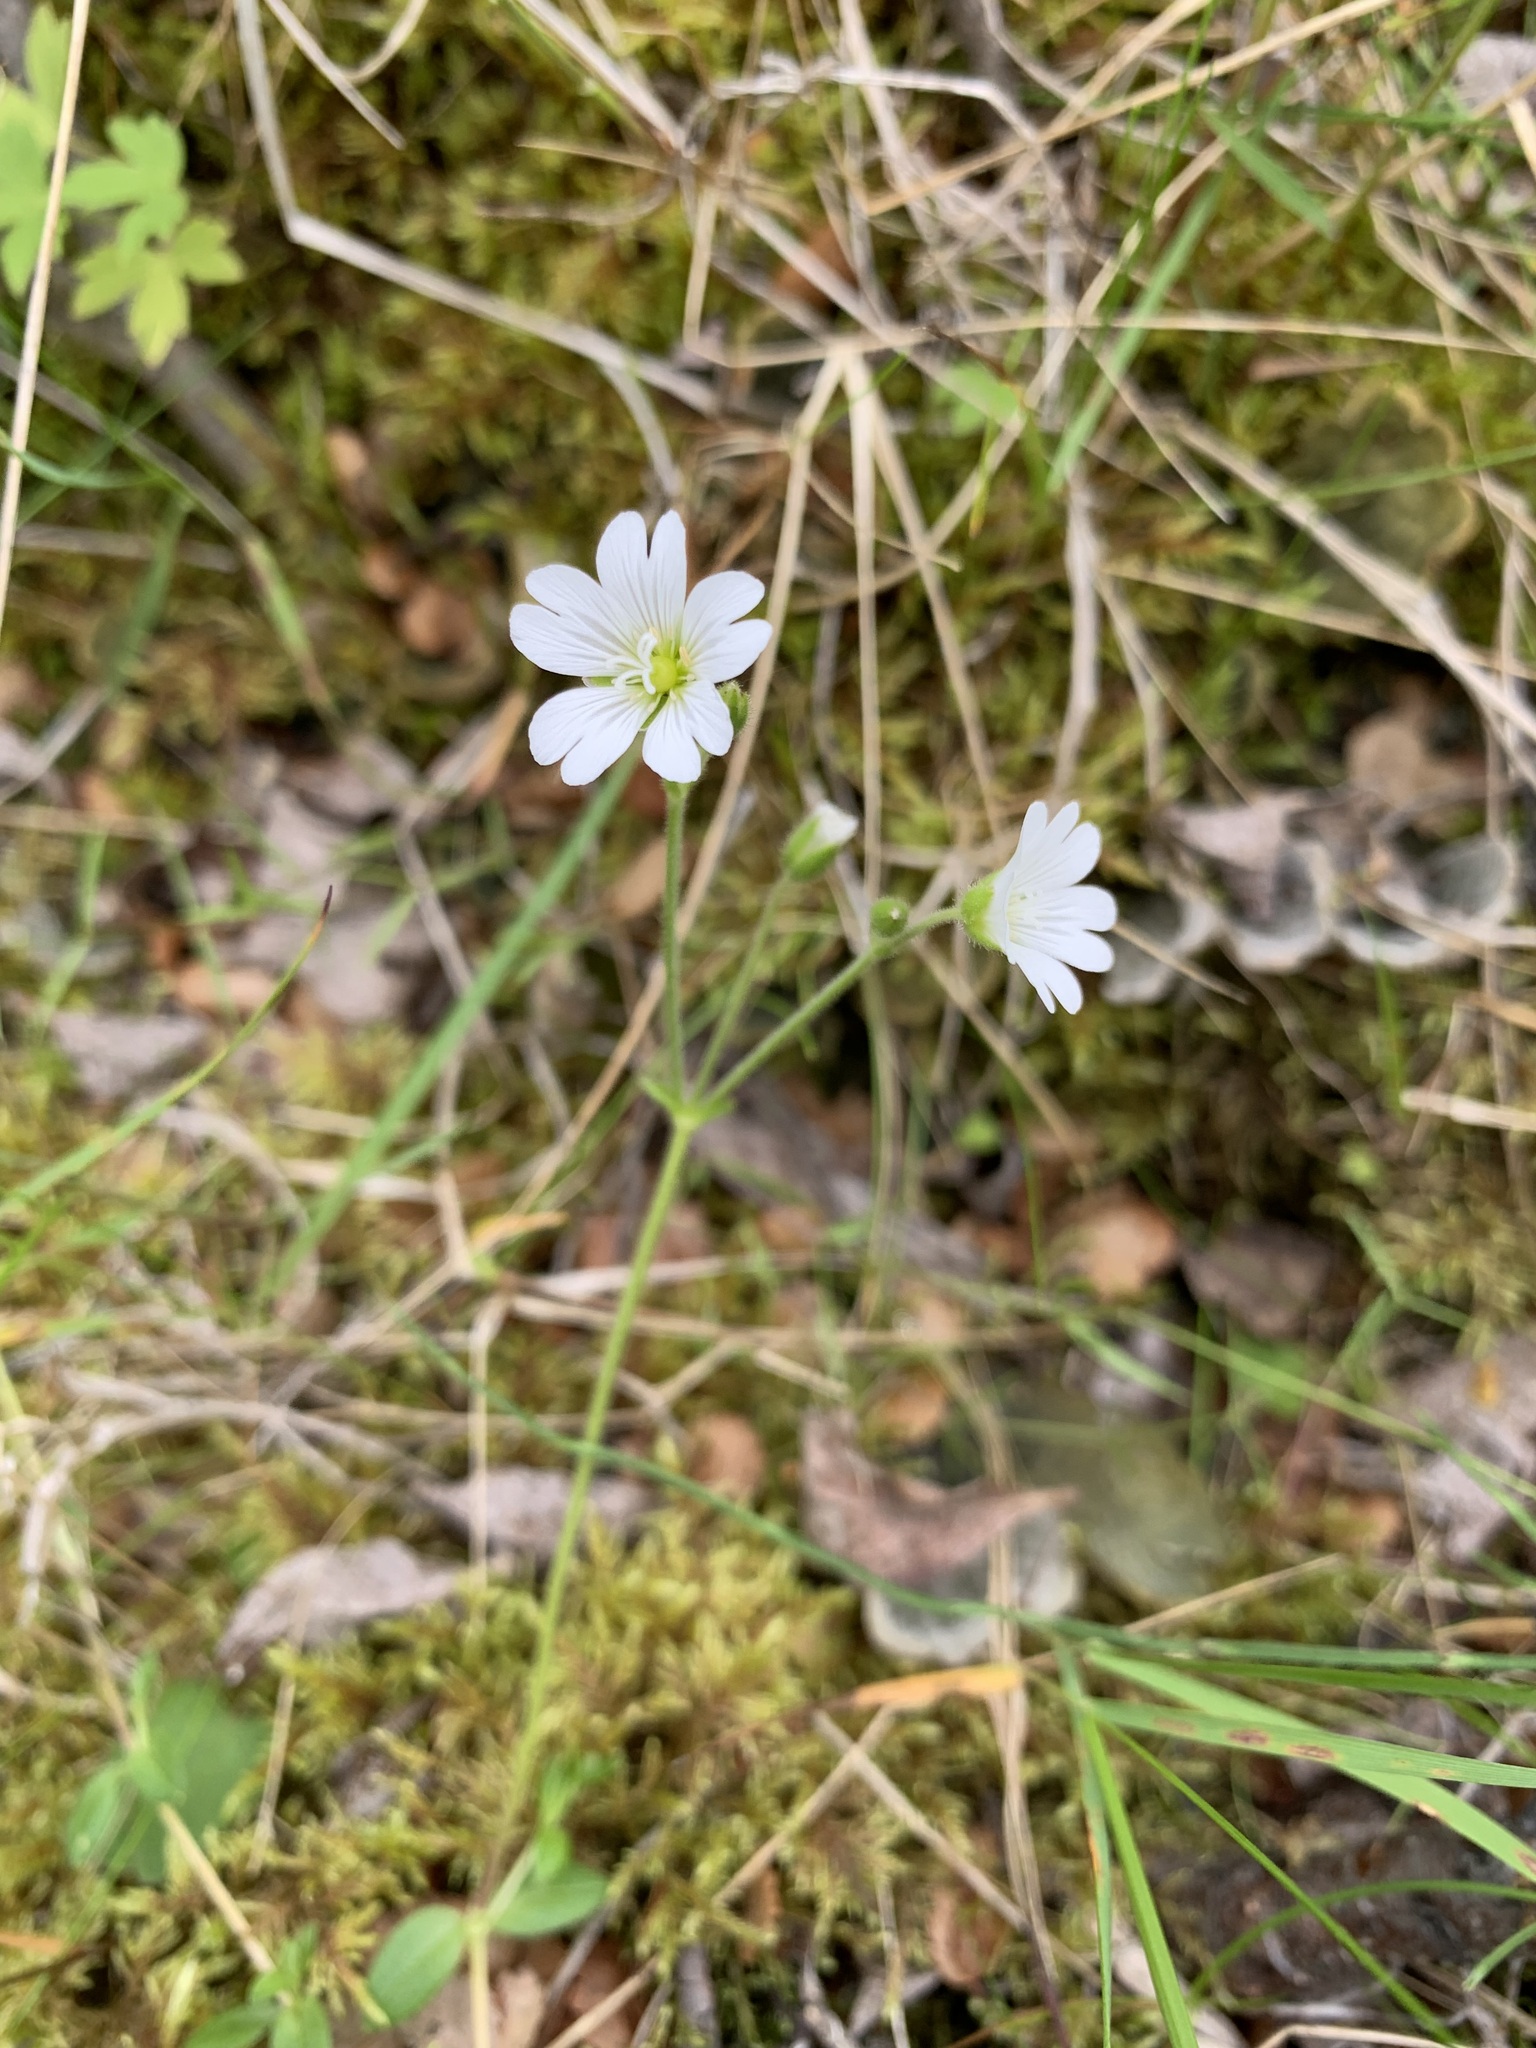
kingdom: Plantae
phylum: Tracheophyta
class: Magnoliopsida
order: Caryophyllales
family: Caryophyllaceae
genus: Cerastium
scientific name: Cerastium regelii
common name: Regel's chickweed
